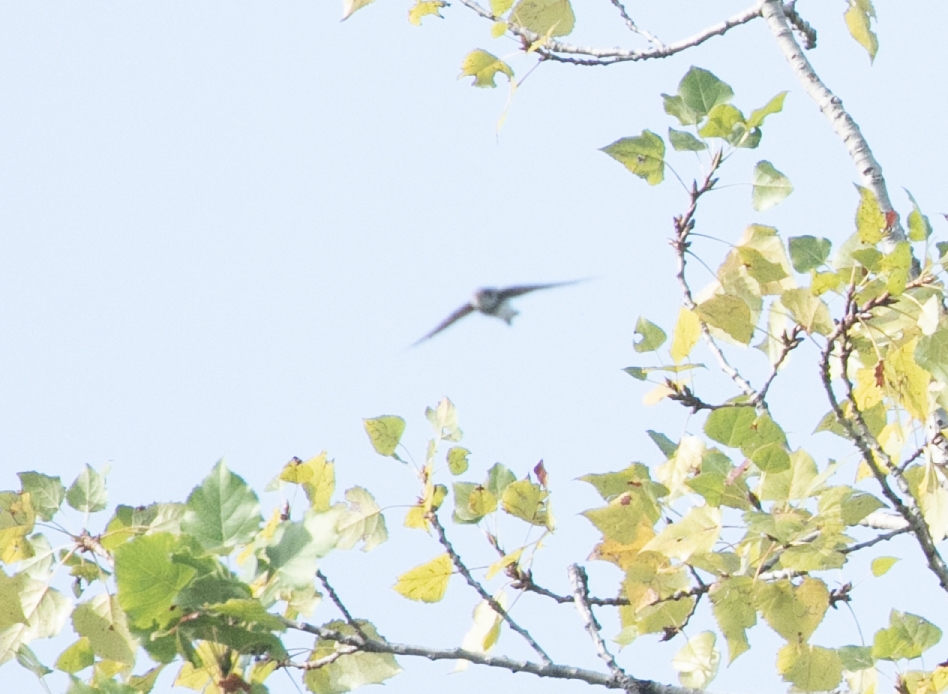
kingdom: Animalia
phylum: Chordata
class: Aves
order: Passeriformes
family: Hirundinidae
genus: Riparia
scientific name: Riparia riparia
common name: Sand martin
